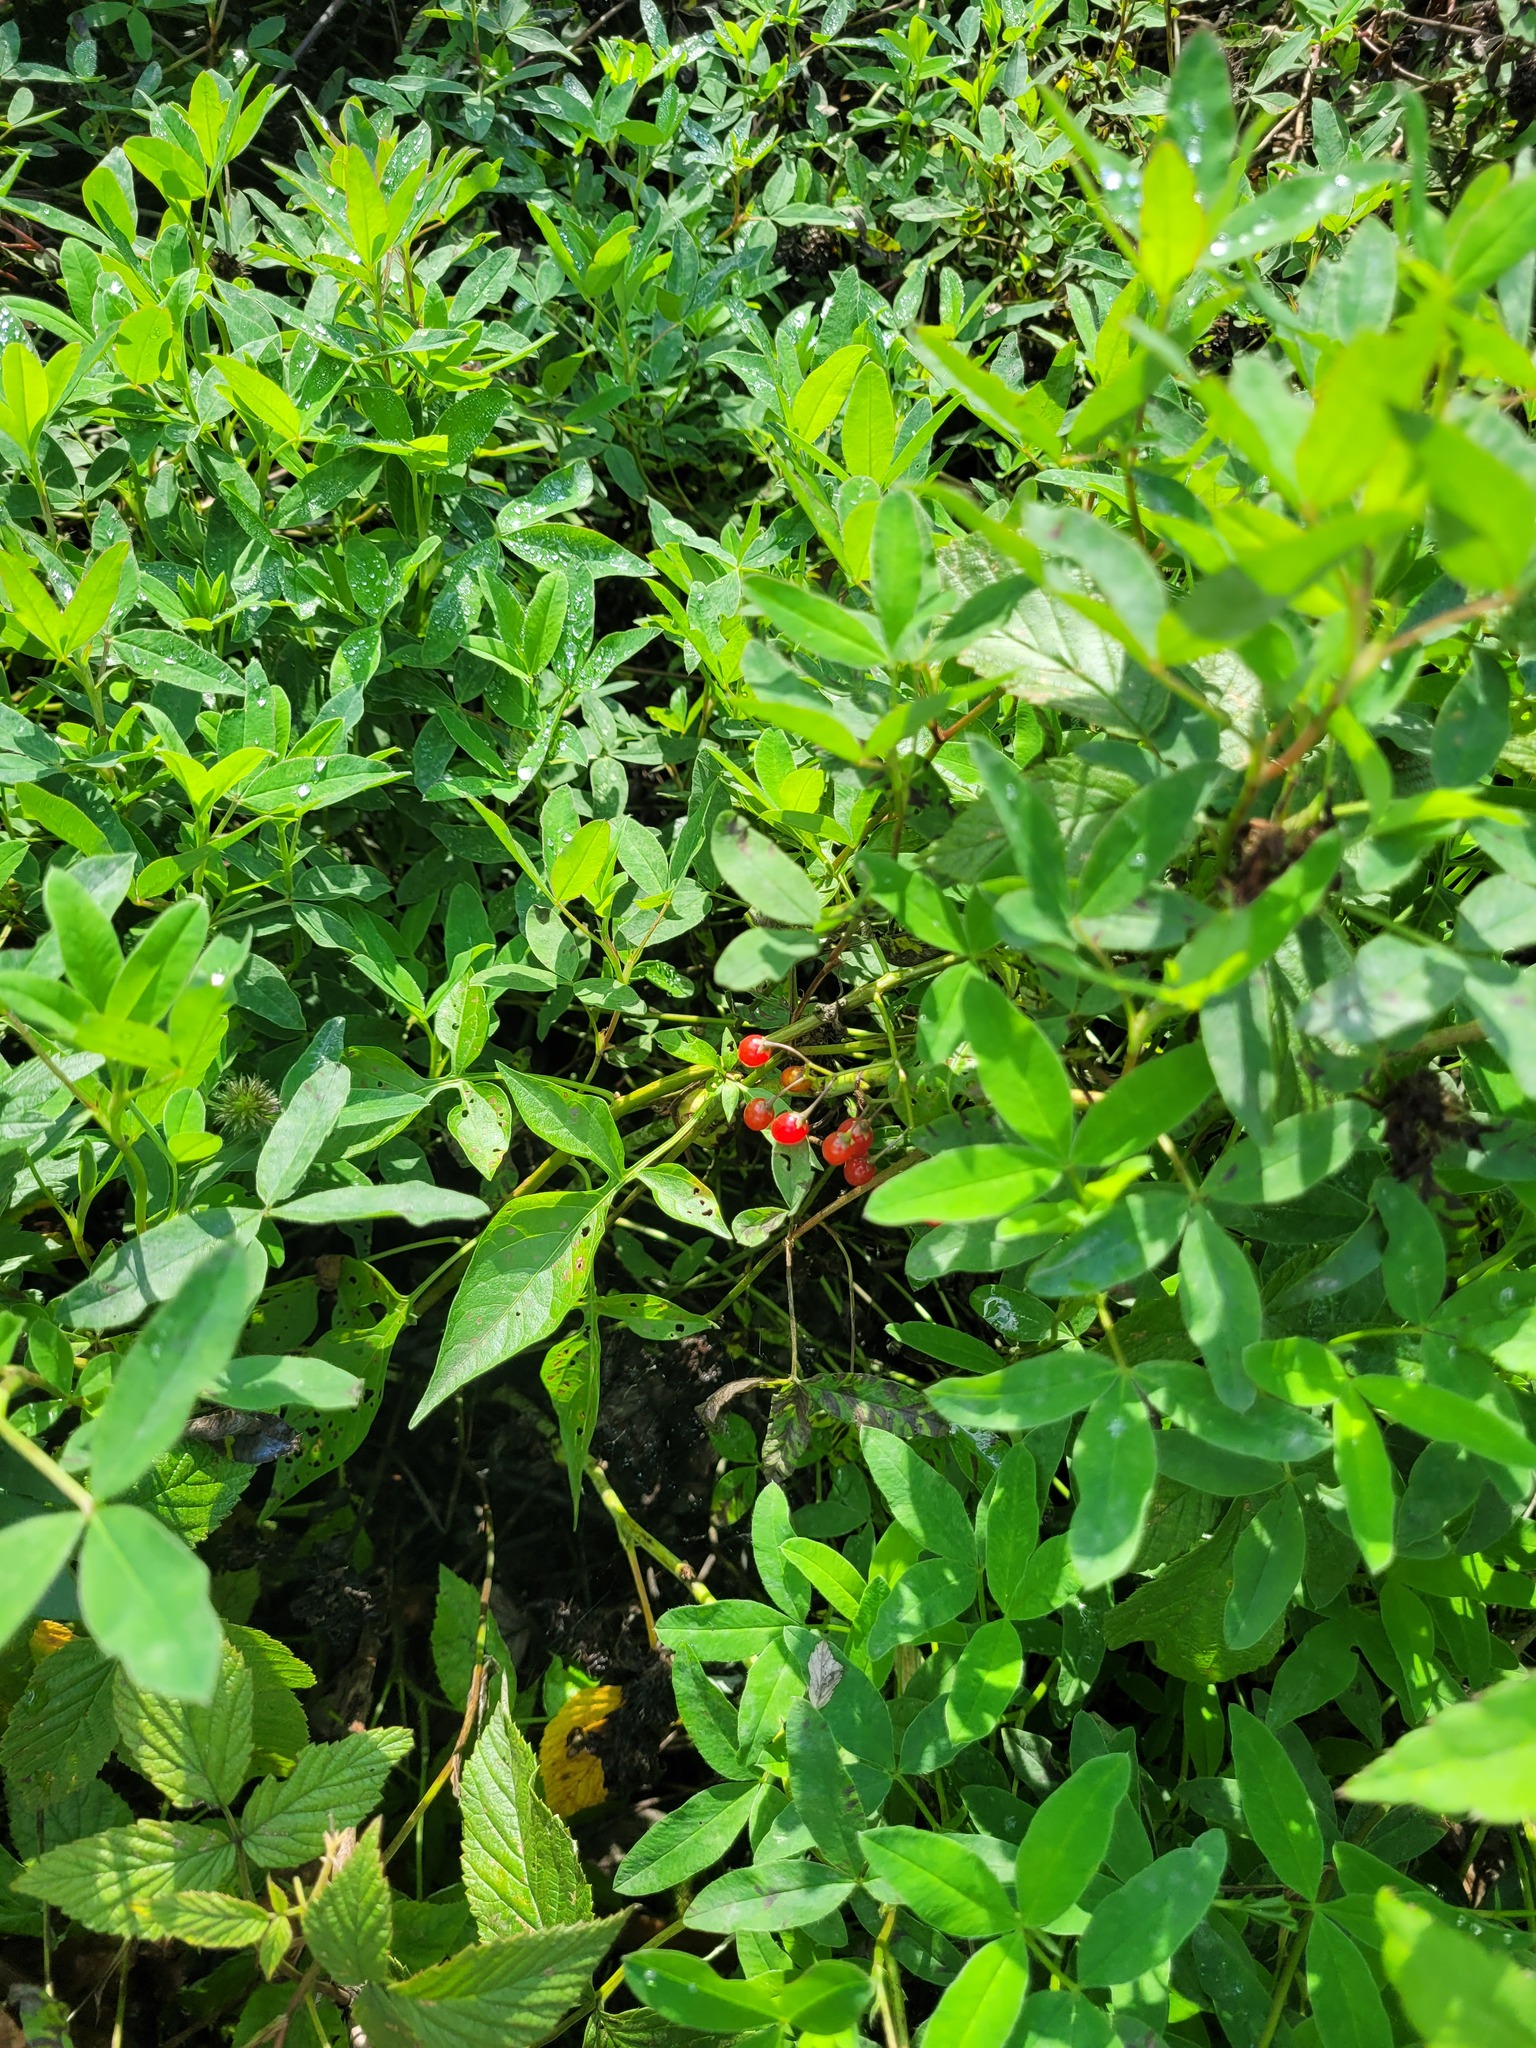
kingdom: Plantae
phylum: Tracheophyta
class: Magnoliopsida
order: Solanales
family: Solanaceae
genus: Solanum
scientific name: Solanum dulcamara
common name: Climbing nightshade
